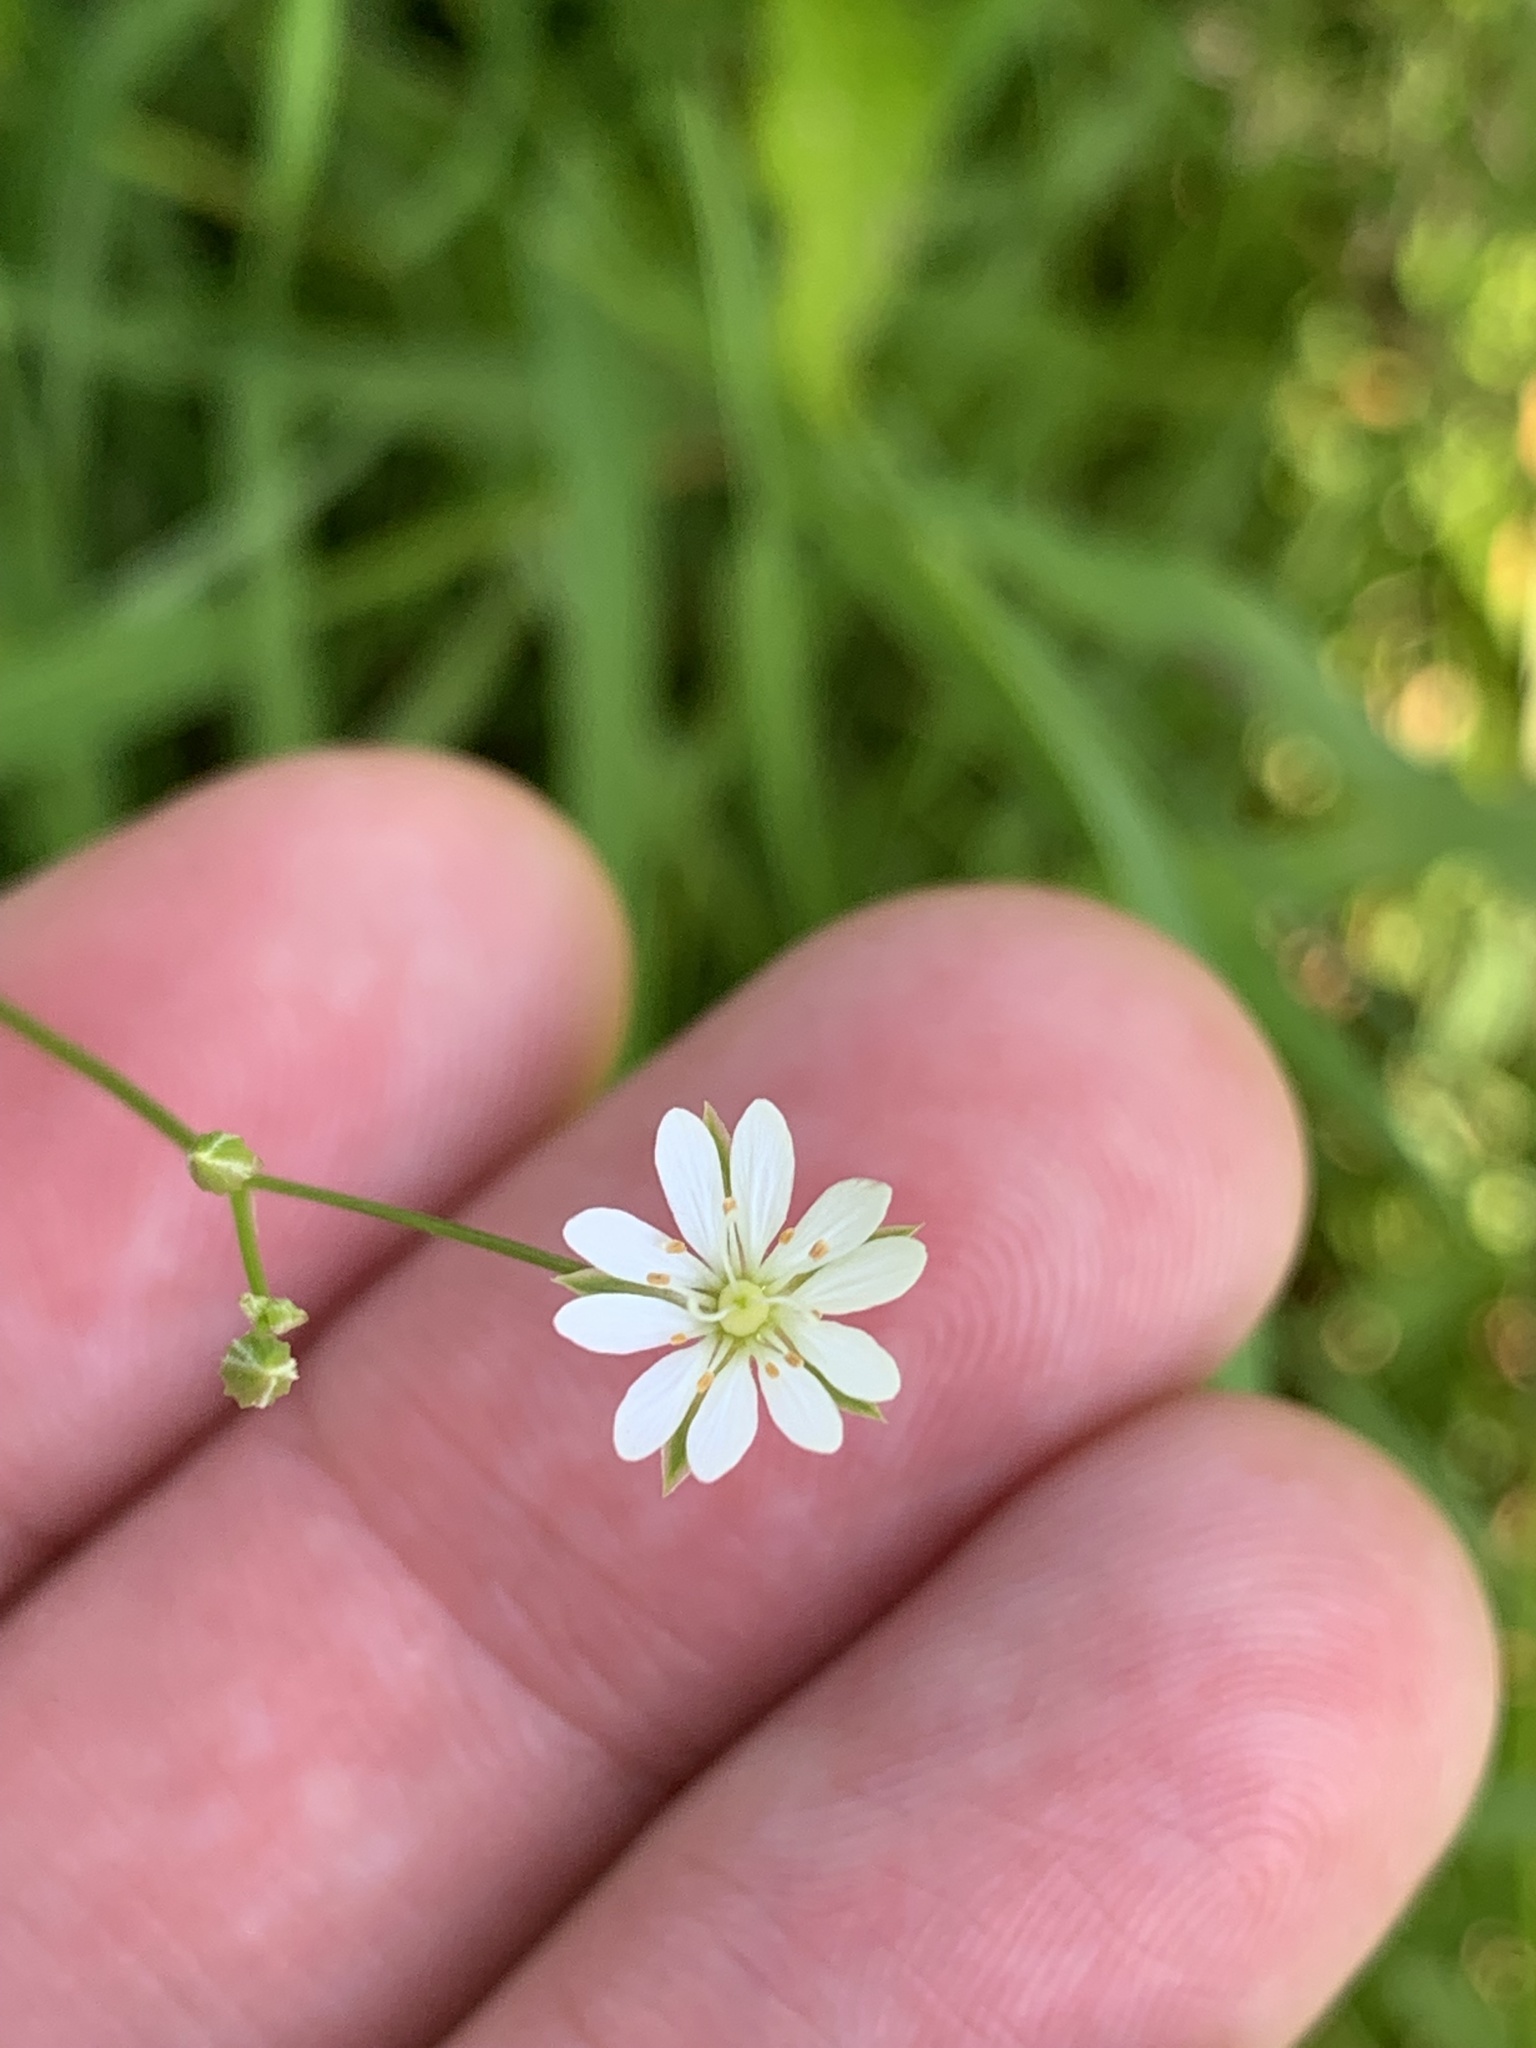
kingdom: Plantae
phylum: Tracheophyta
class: Magnoliopsida
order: Caryophyllales
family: Caryophyllaceae
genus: Stellaria
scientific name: Stellaria graminea
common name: Grass-like starwort
